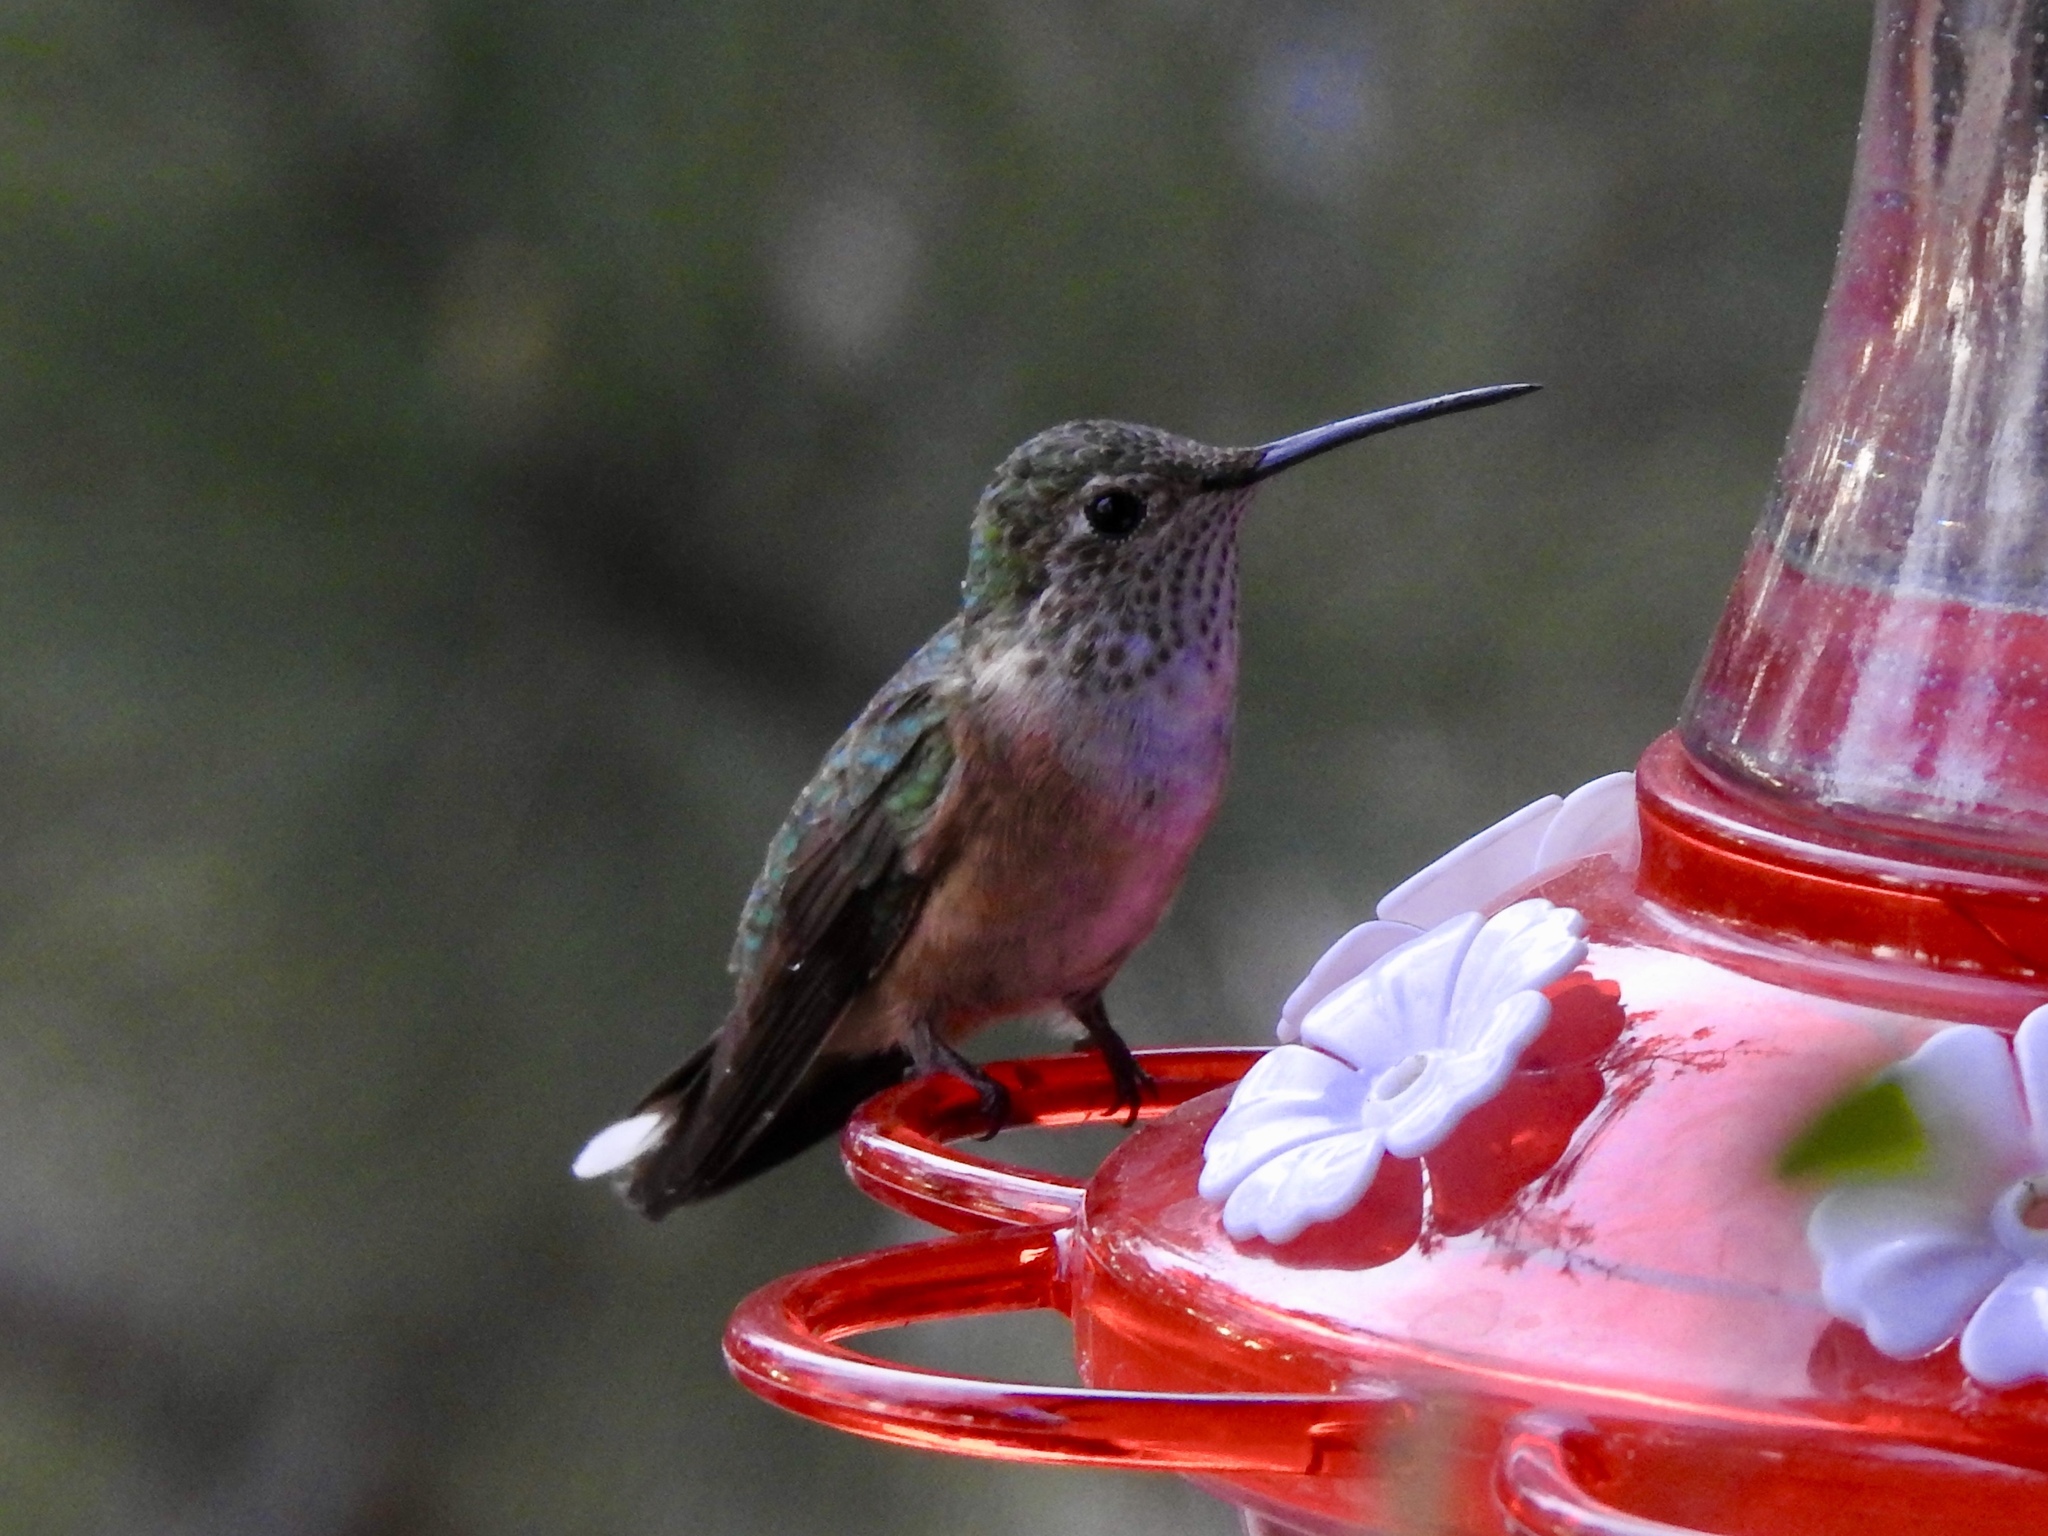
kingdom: Animalia
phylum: Chordata
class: Aves
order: Apodiformes
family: Trochilidae
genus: Selasphorus
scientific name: Selasphorus platycercus
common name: Broad-tailed hummingbird
